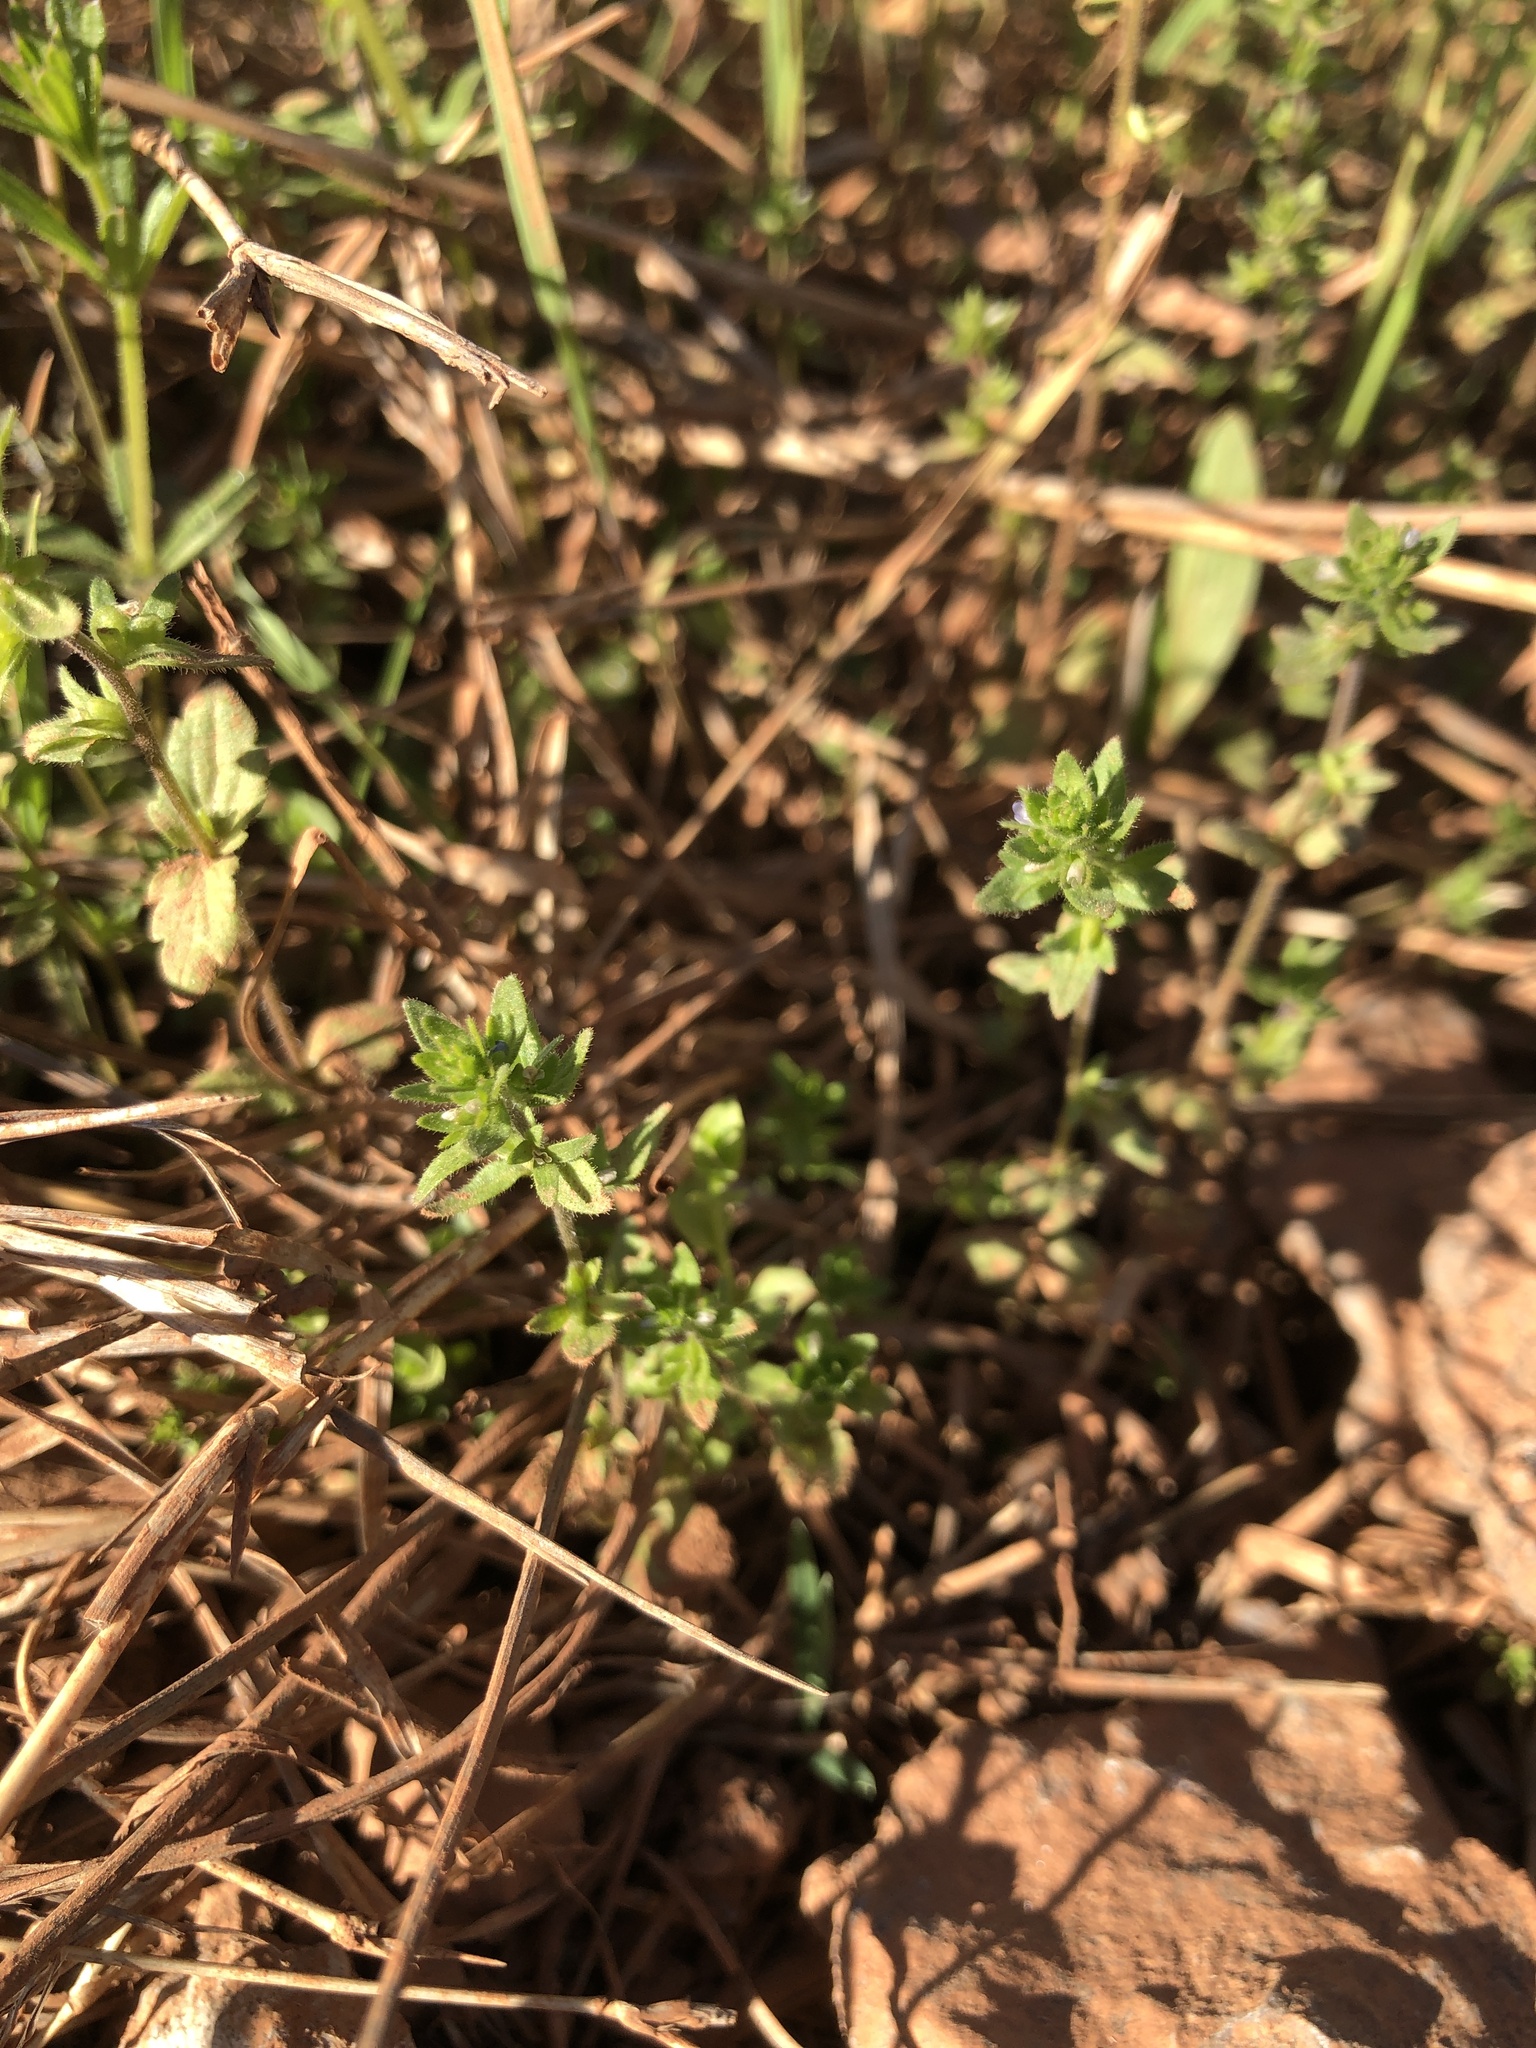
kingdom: Plantae
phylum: Tracheophyta
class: Magnoliopsida
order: Gentianales
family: Rubiaceae
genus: Sherardia
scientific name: Sherardia arvensis
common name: Field madder
